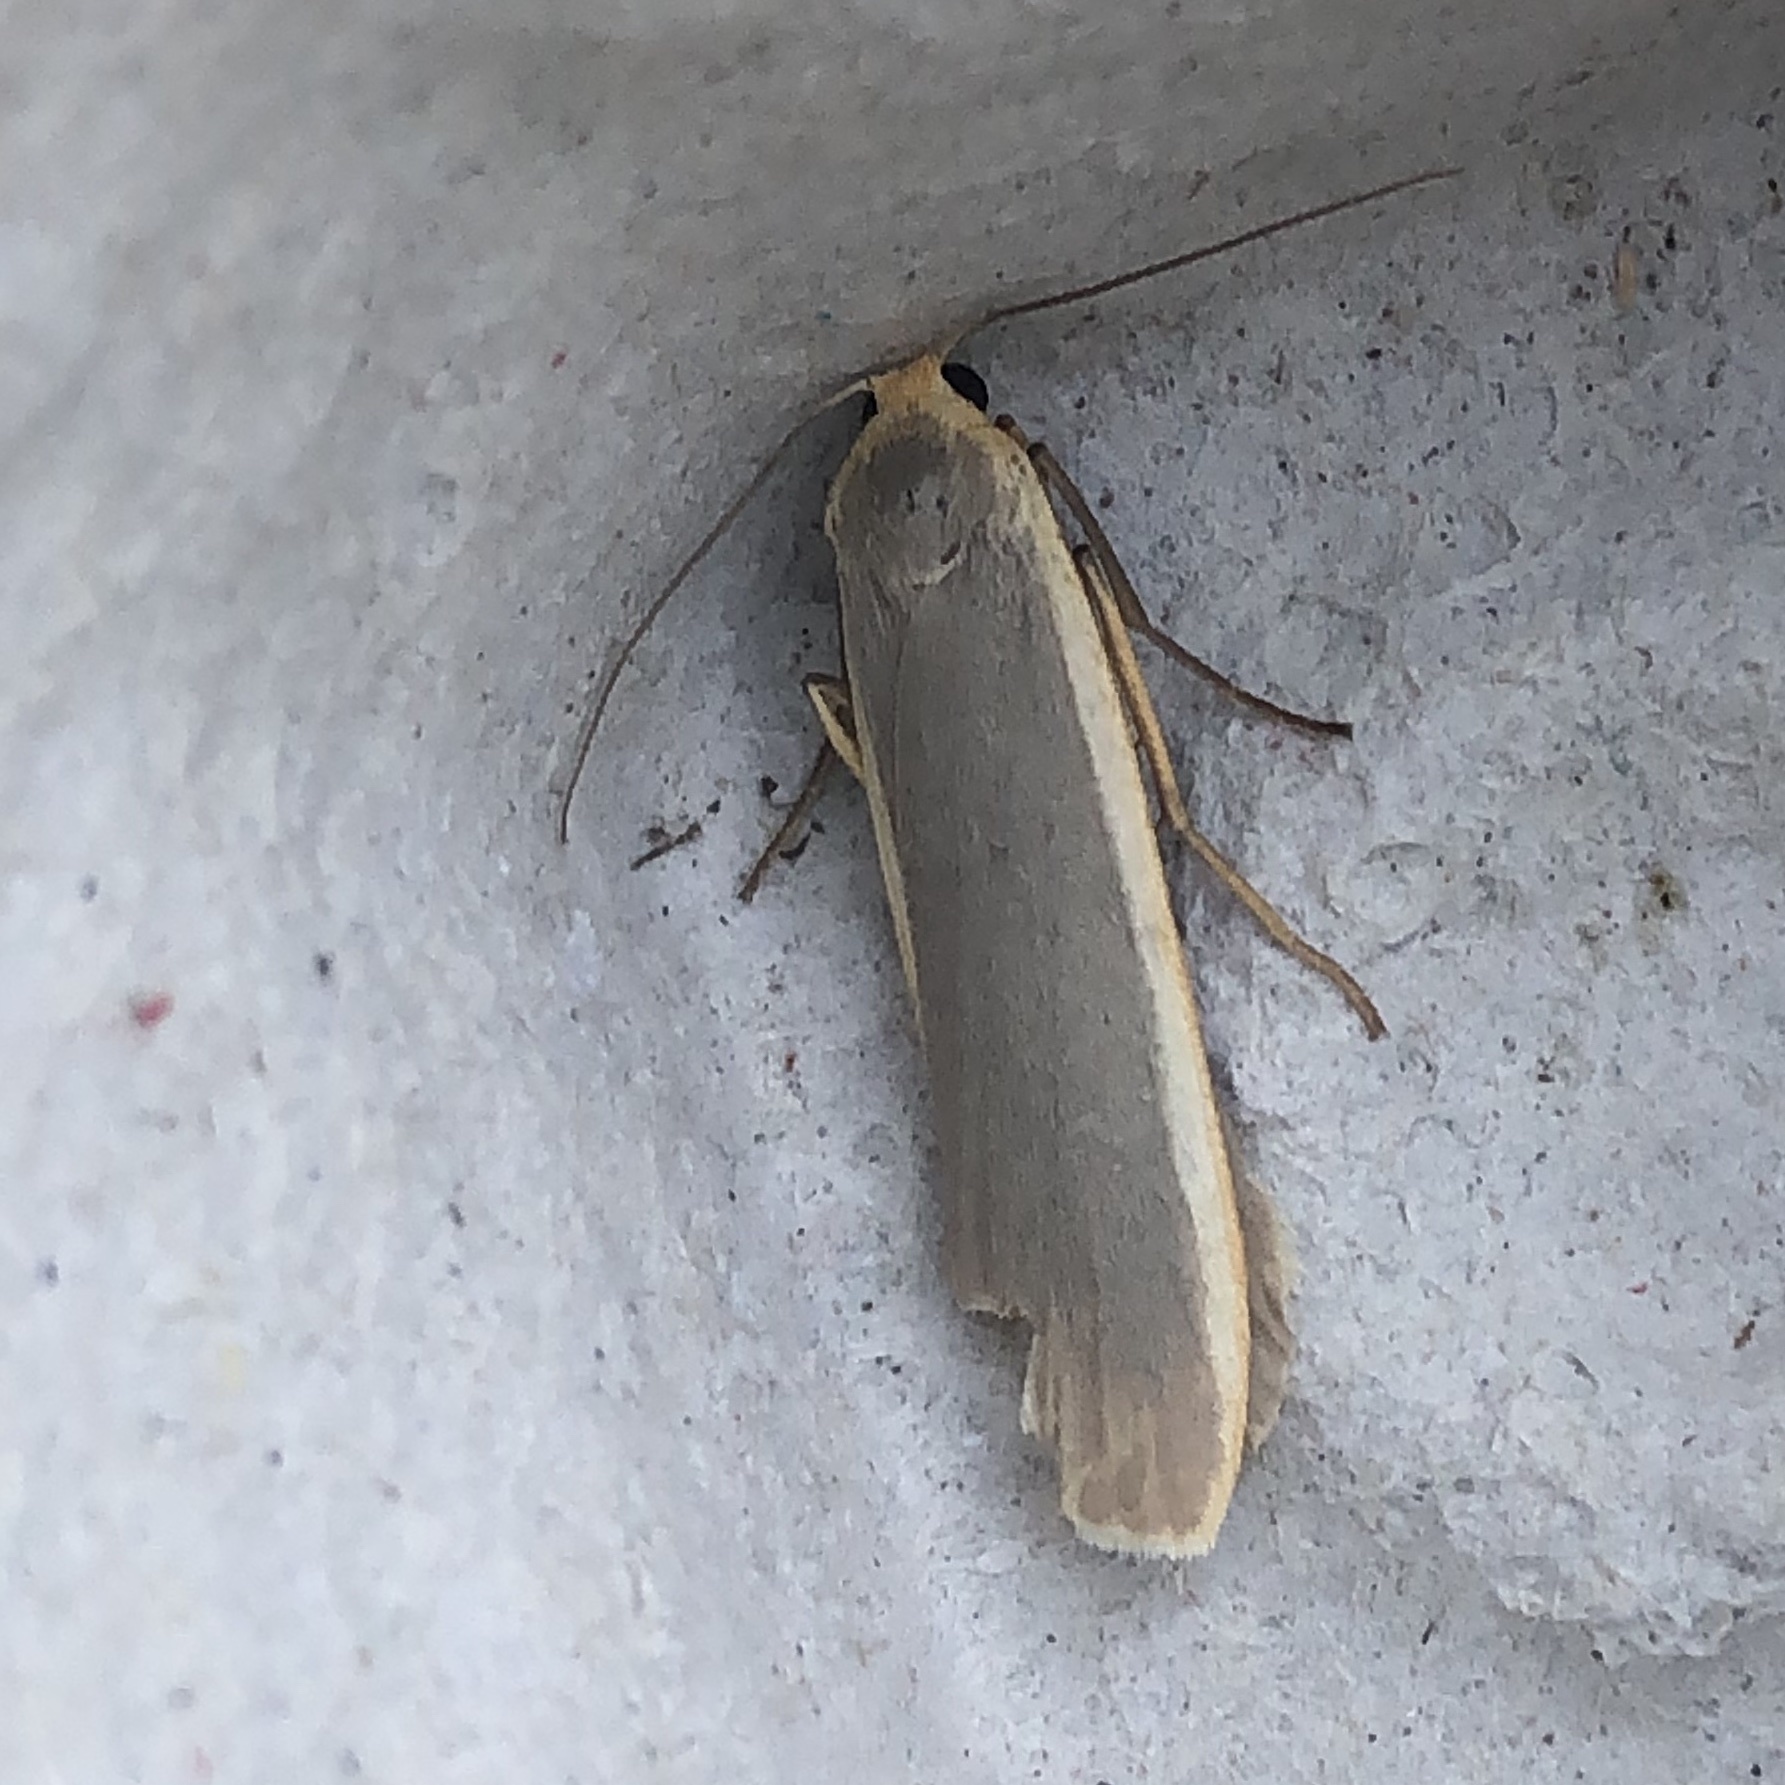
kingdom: Animalia
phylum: Arthropoda
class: Insecta
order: Lepidoptera
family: Erebidae
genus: Nyea
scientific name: Nyea lurideola
